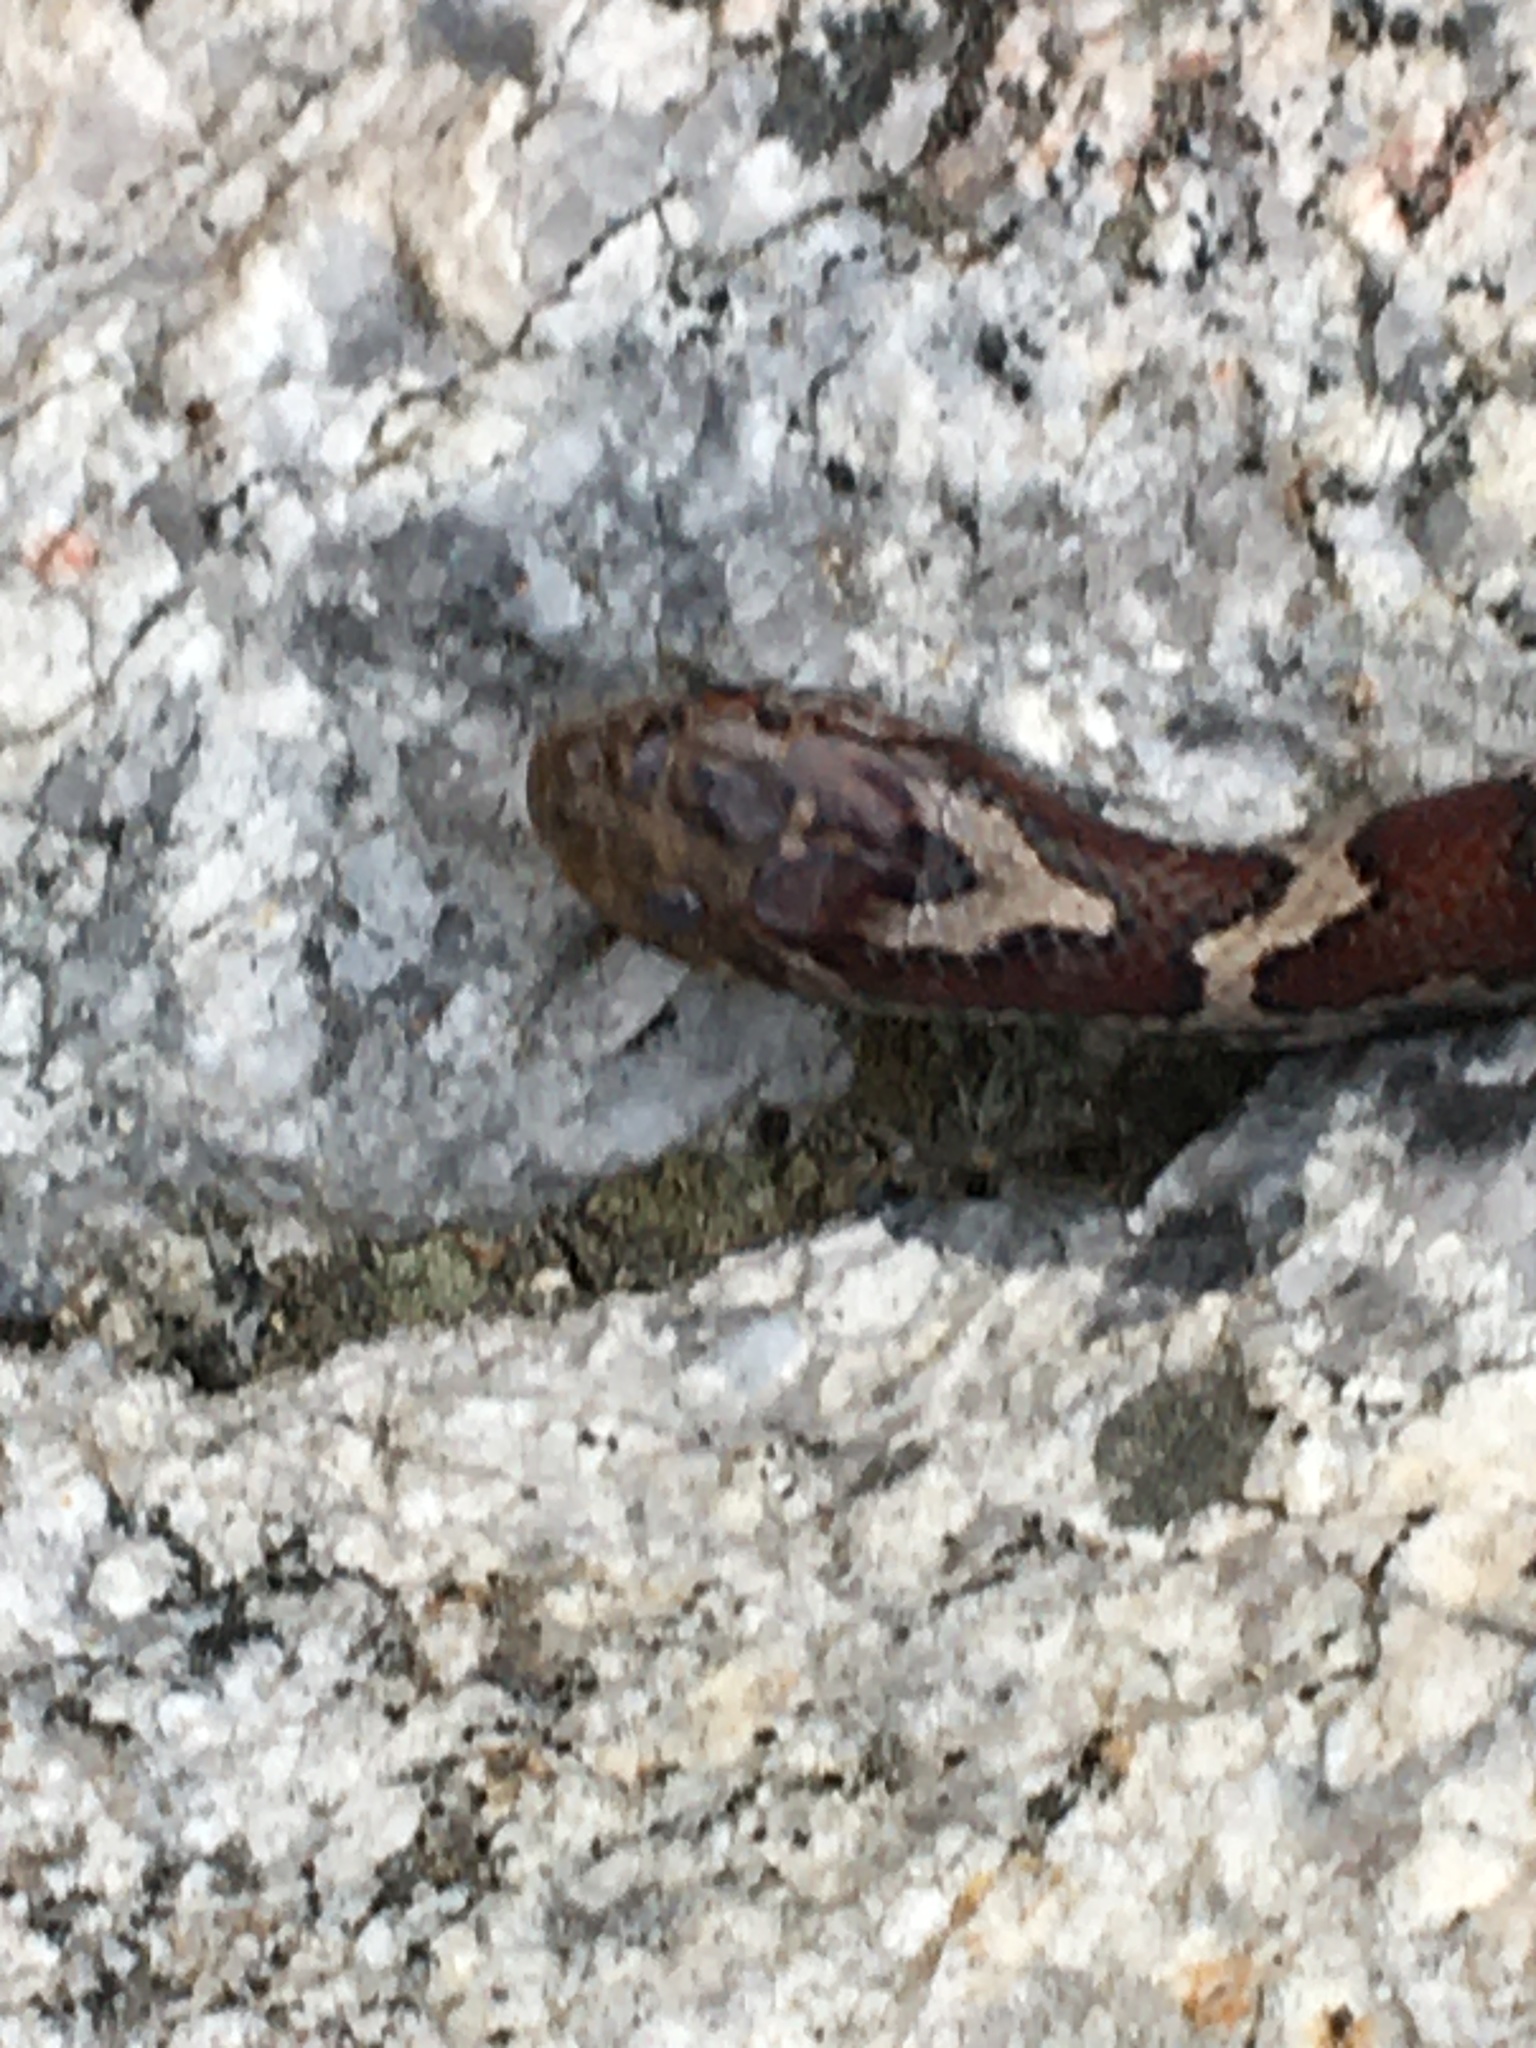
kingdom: Animalia
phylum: Chordata
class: Squamata
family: Colubridae
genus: Lampropeltis
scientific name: Lampropeltis triangulum
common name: Eastern milksnake
